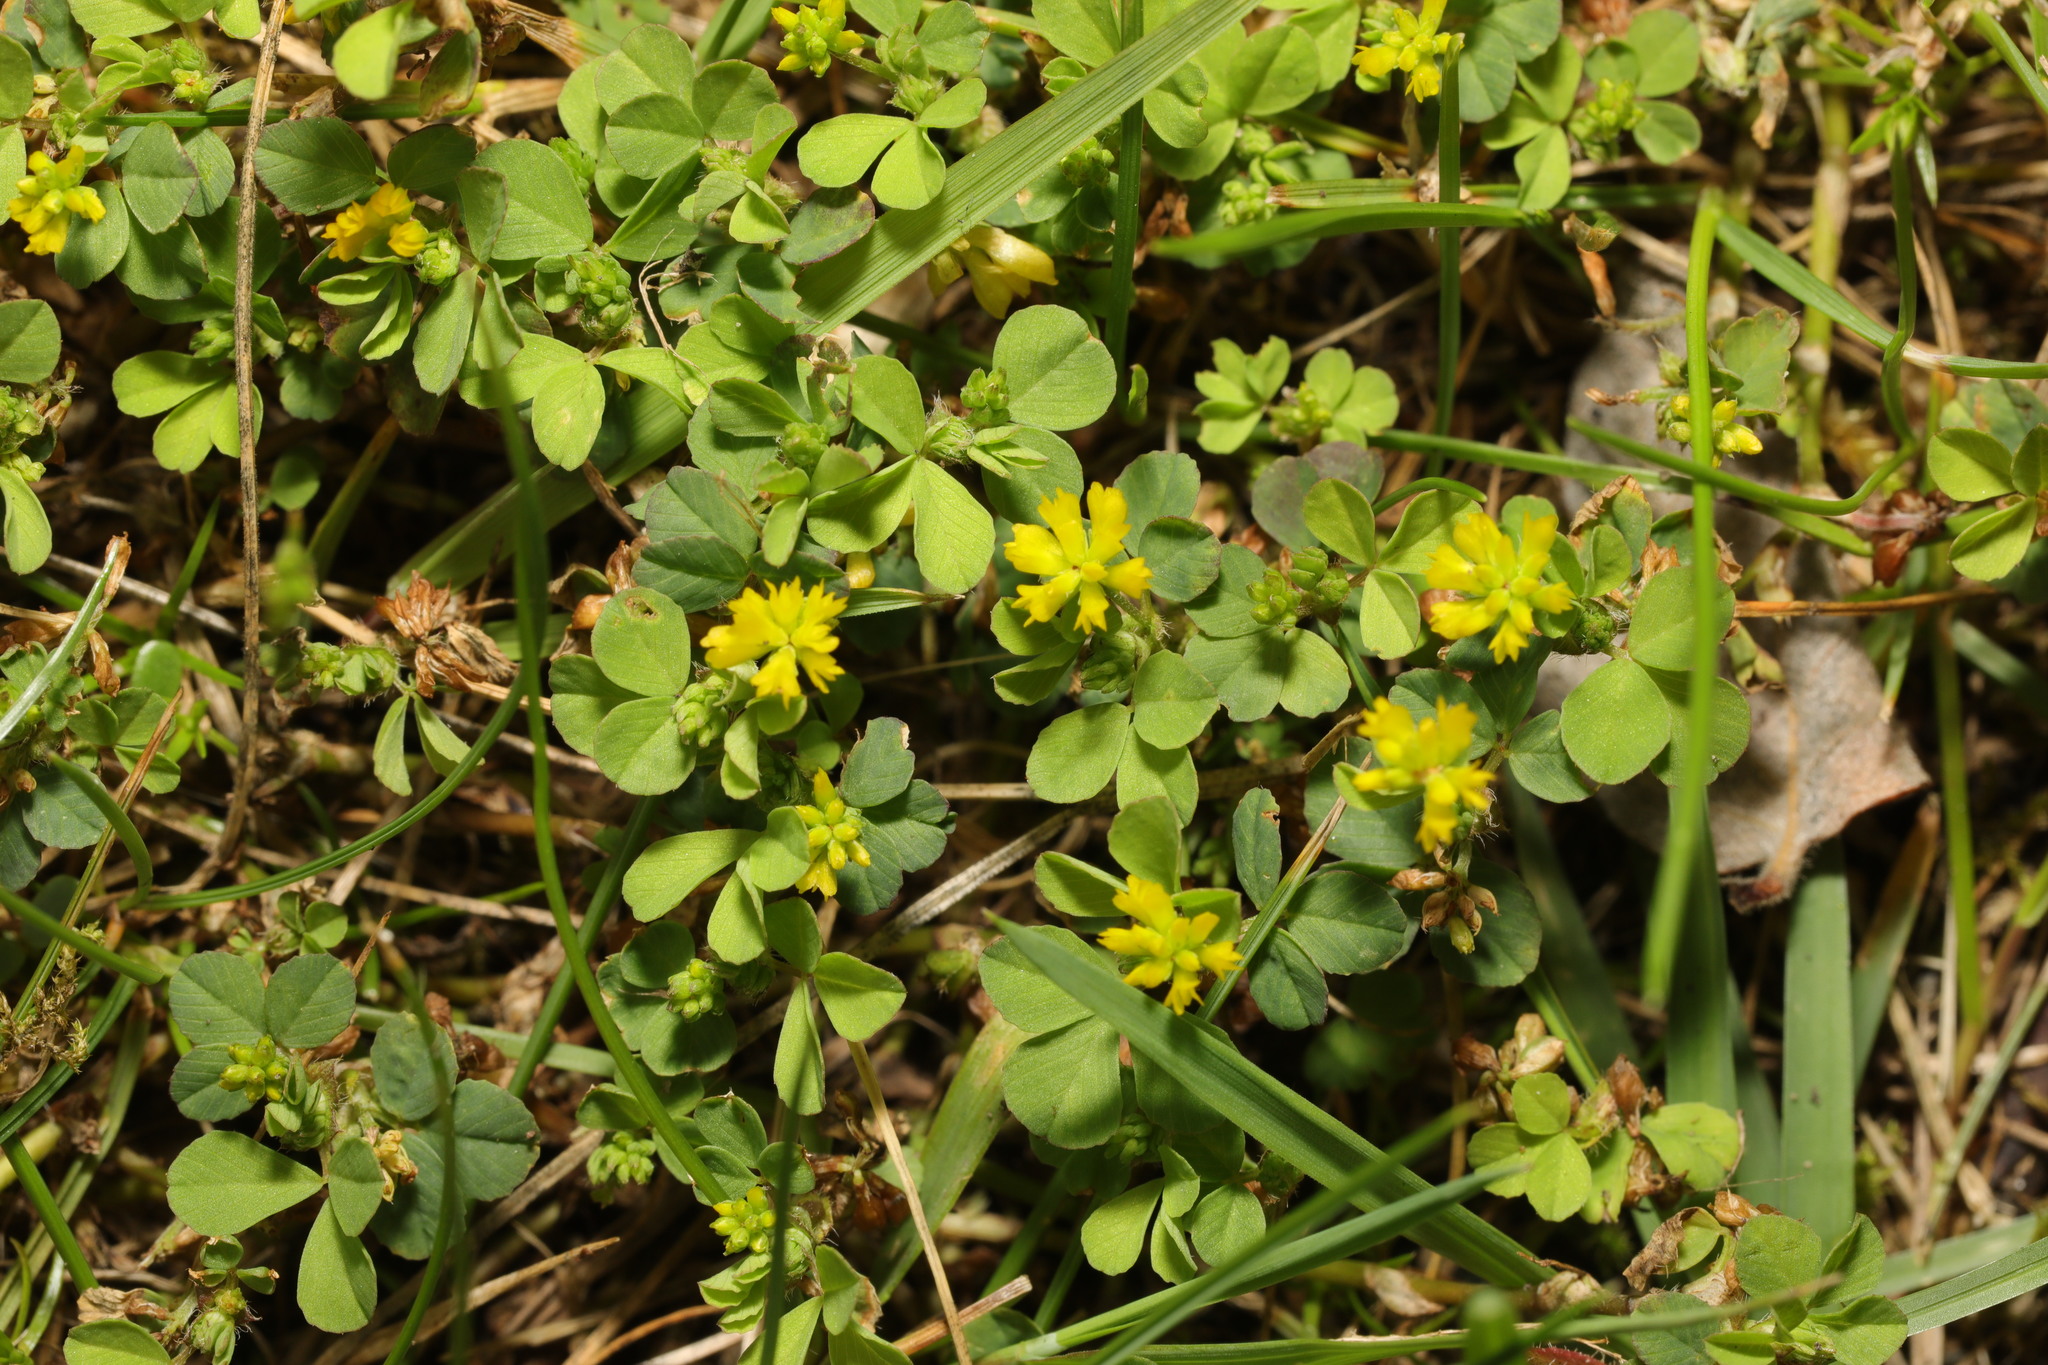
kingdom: Plantae
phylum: Tracheophyta
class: Magnoliopsida
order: Fabales
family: Fabaceae
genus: Trifolium
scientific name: Trifolium dubium
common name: Suckling clover
